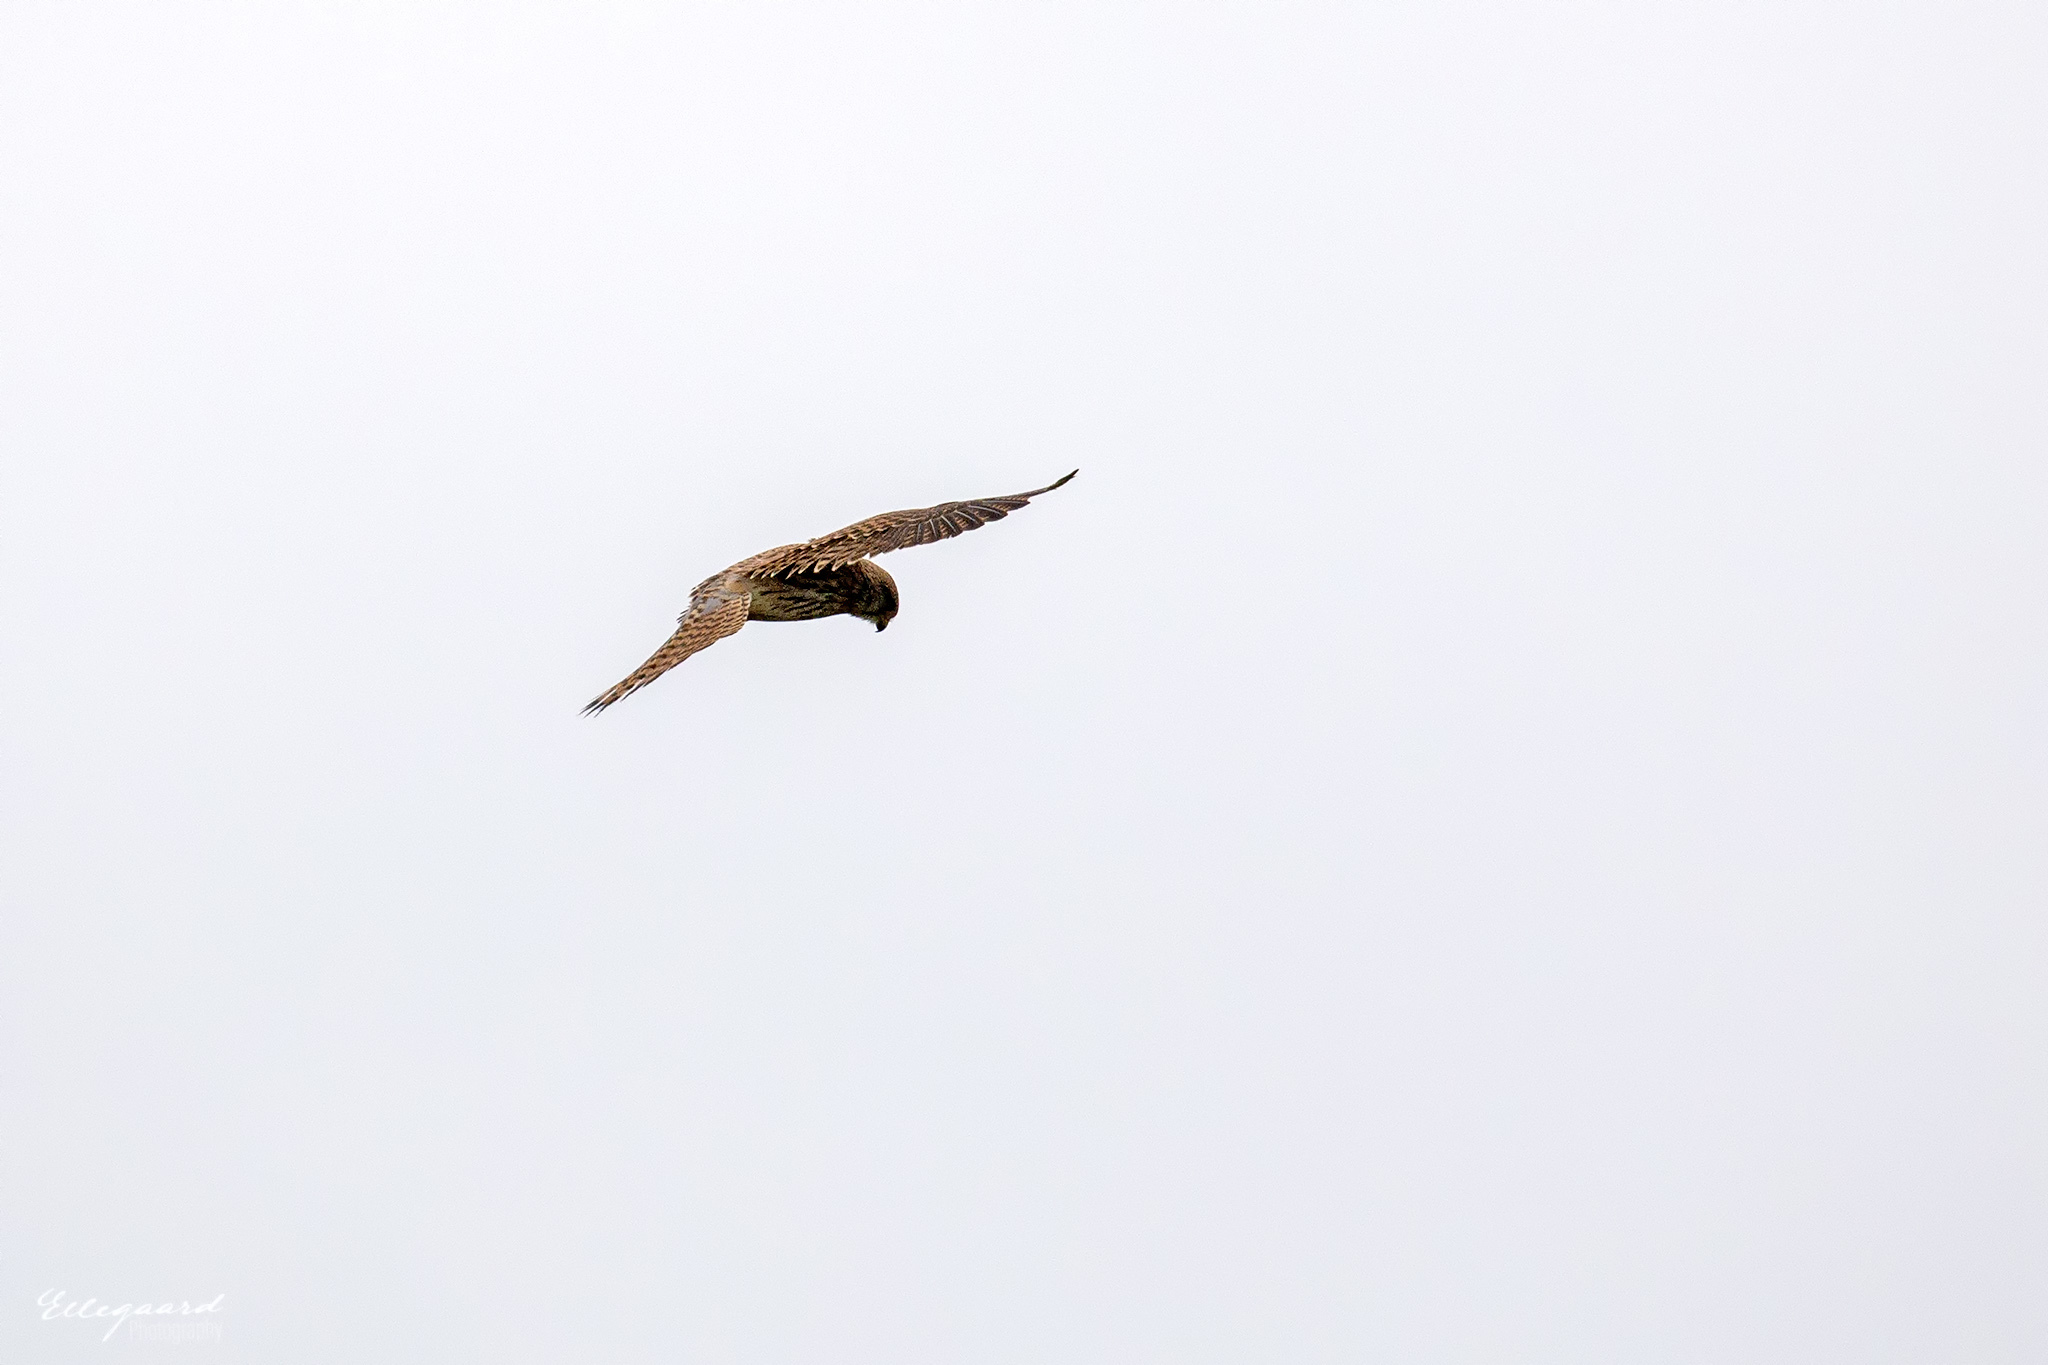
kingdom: Animalia
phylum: Chordata
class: Aves
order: Falconiformes
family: Falconidae
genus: Falco
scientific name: Falco tinnunculus
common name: Common kestrel
